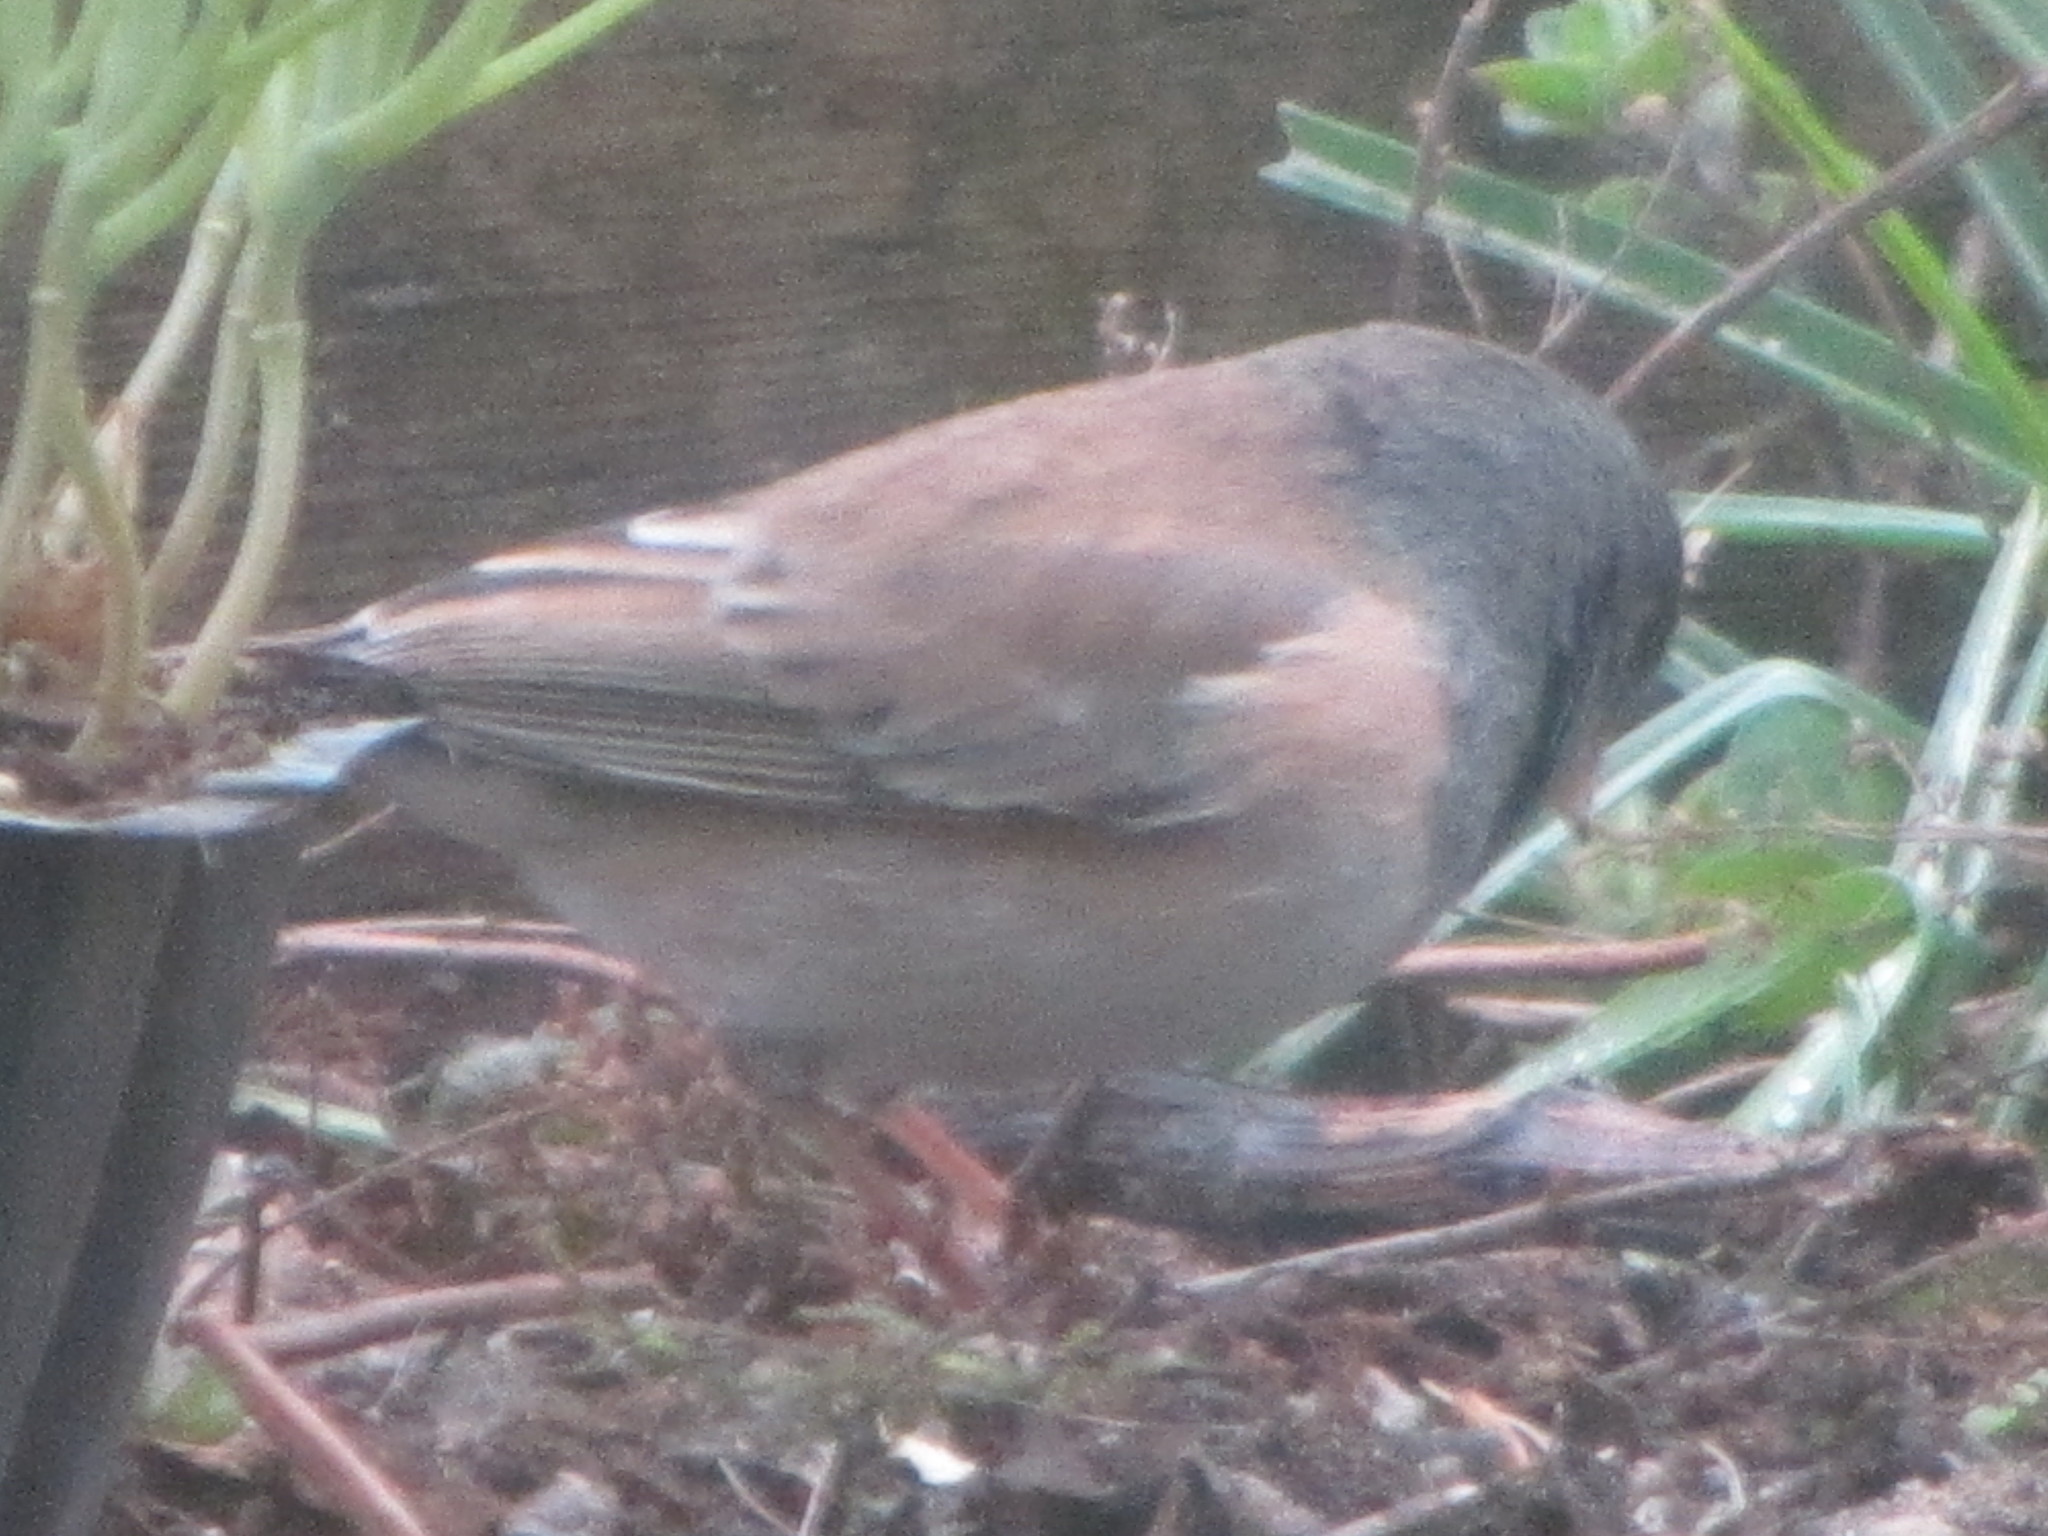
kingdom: Animalia
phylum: Chordata
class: Aves
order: Passeriformes
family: Passerellidae
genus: Junco
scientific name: Junco hyemalis
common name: Dark-eyed junco
